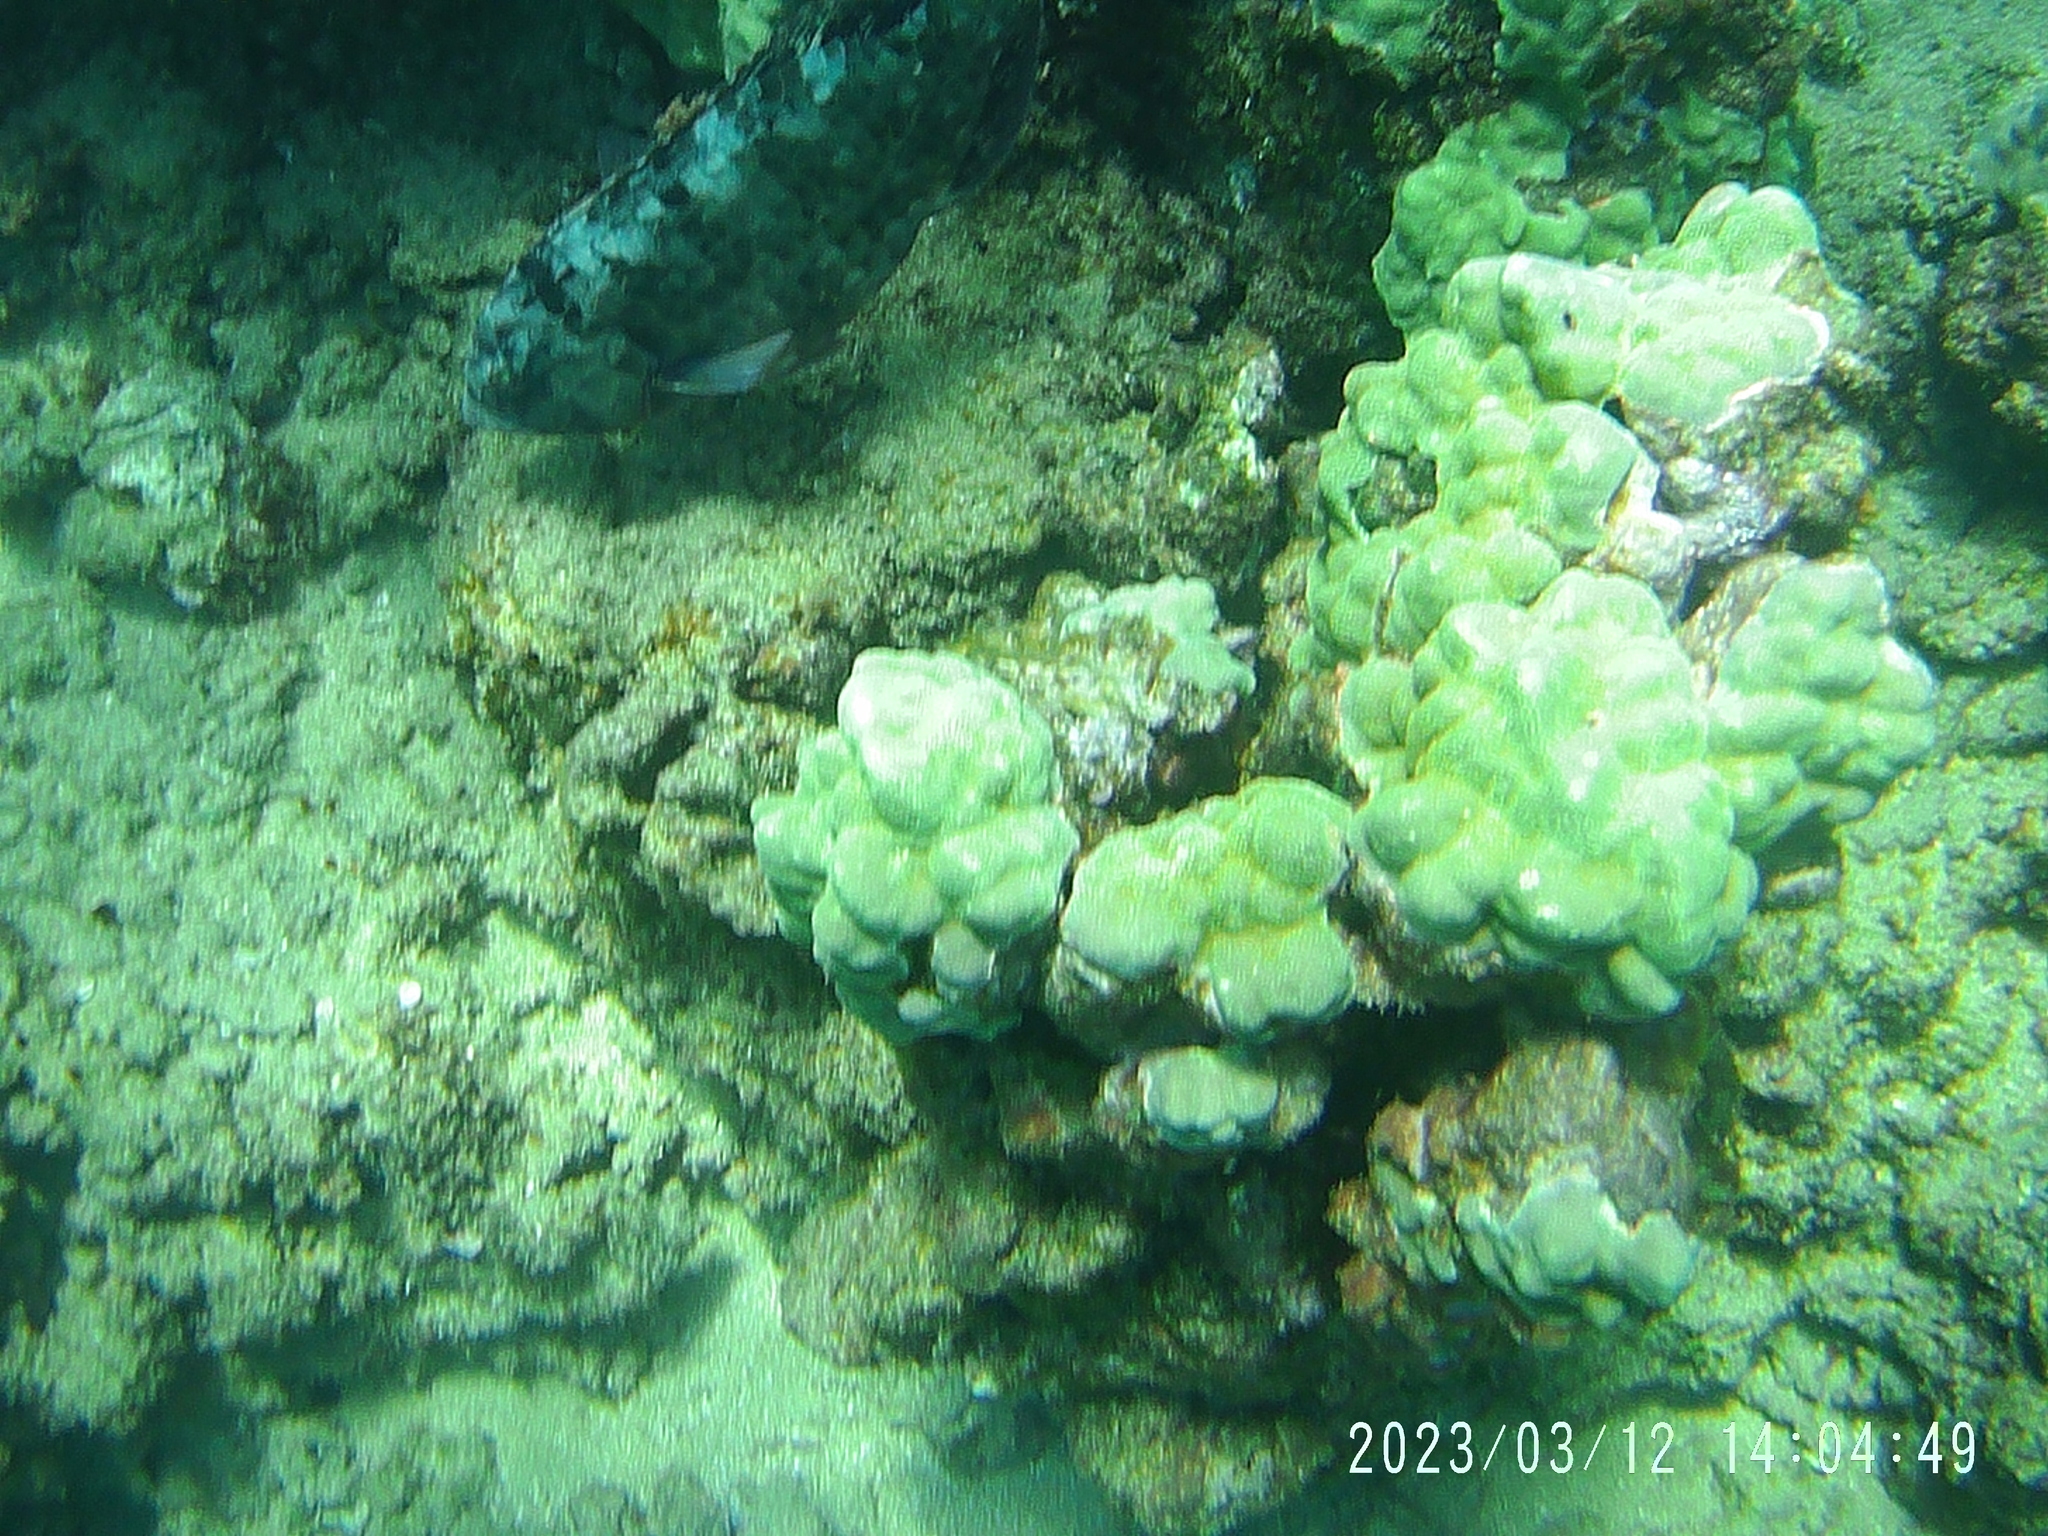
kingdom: Animalia
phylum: Chordata
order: Perciformes
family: Scaridae
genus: Calotomus
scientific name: Calotomus carolinus
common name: Bucktooth
